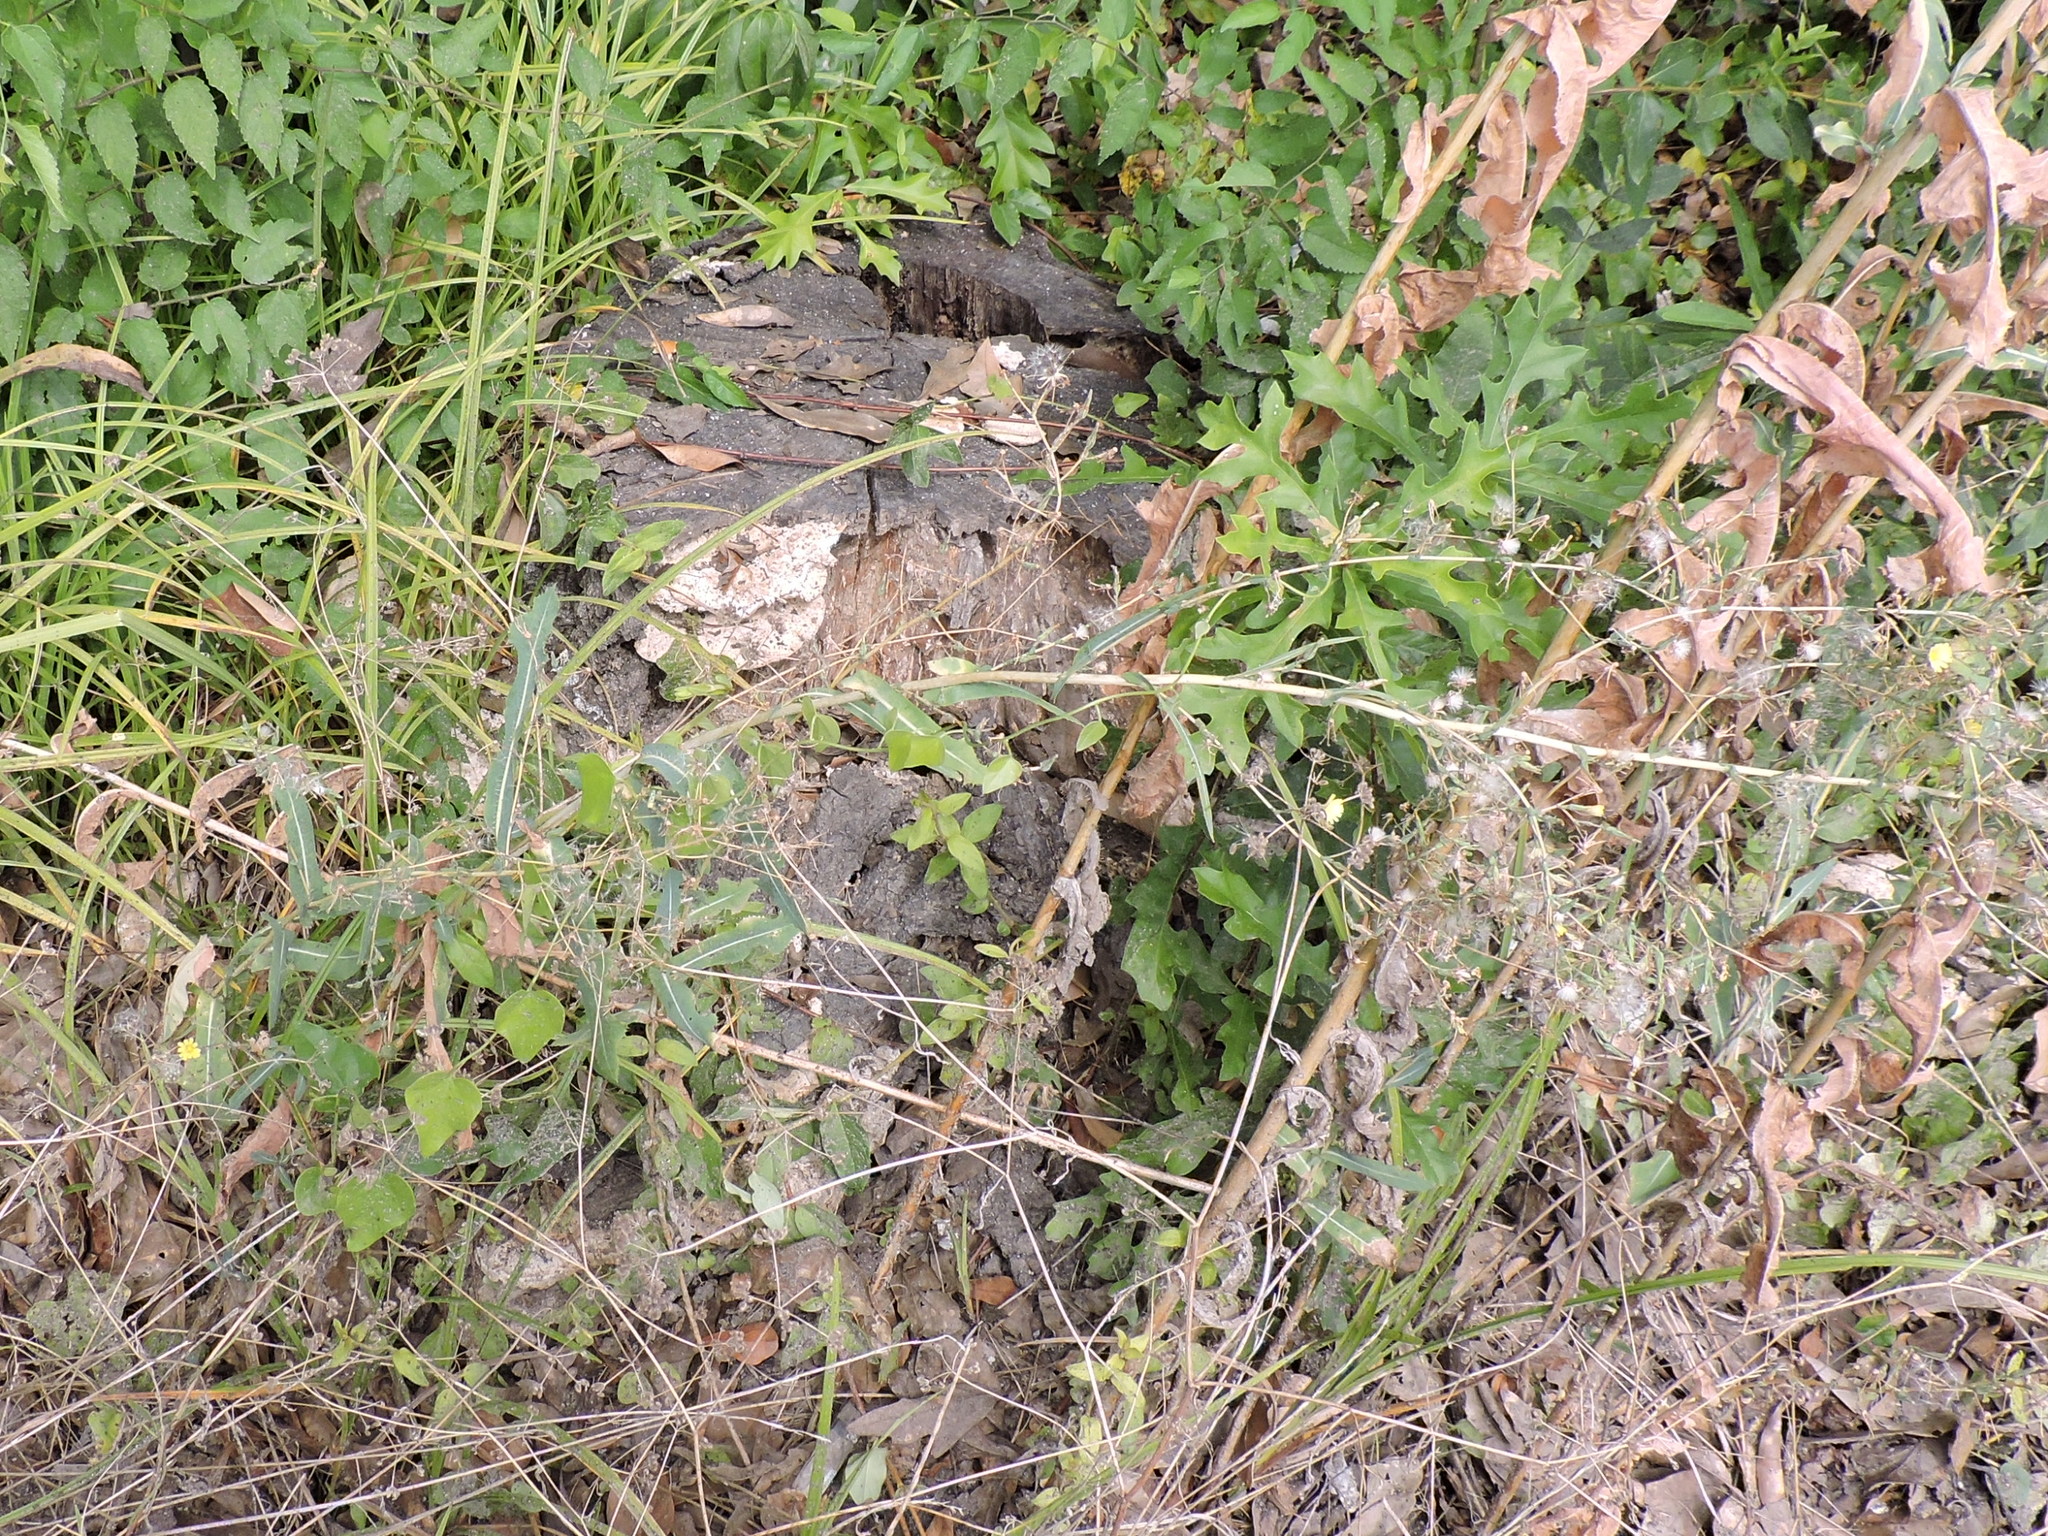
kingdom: Plantae
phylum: Tracheophyta
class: Magnoliopsida
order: Asterales
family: Asteraceae
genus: Lactuca
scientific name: Lactuca serriola
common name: Prickly lettuce
